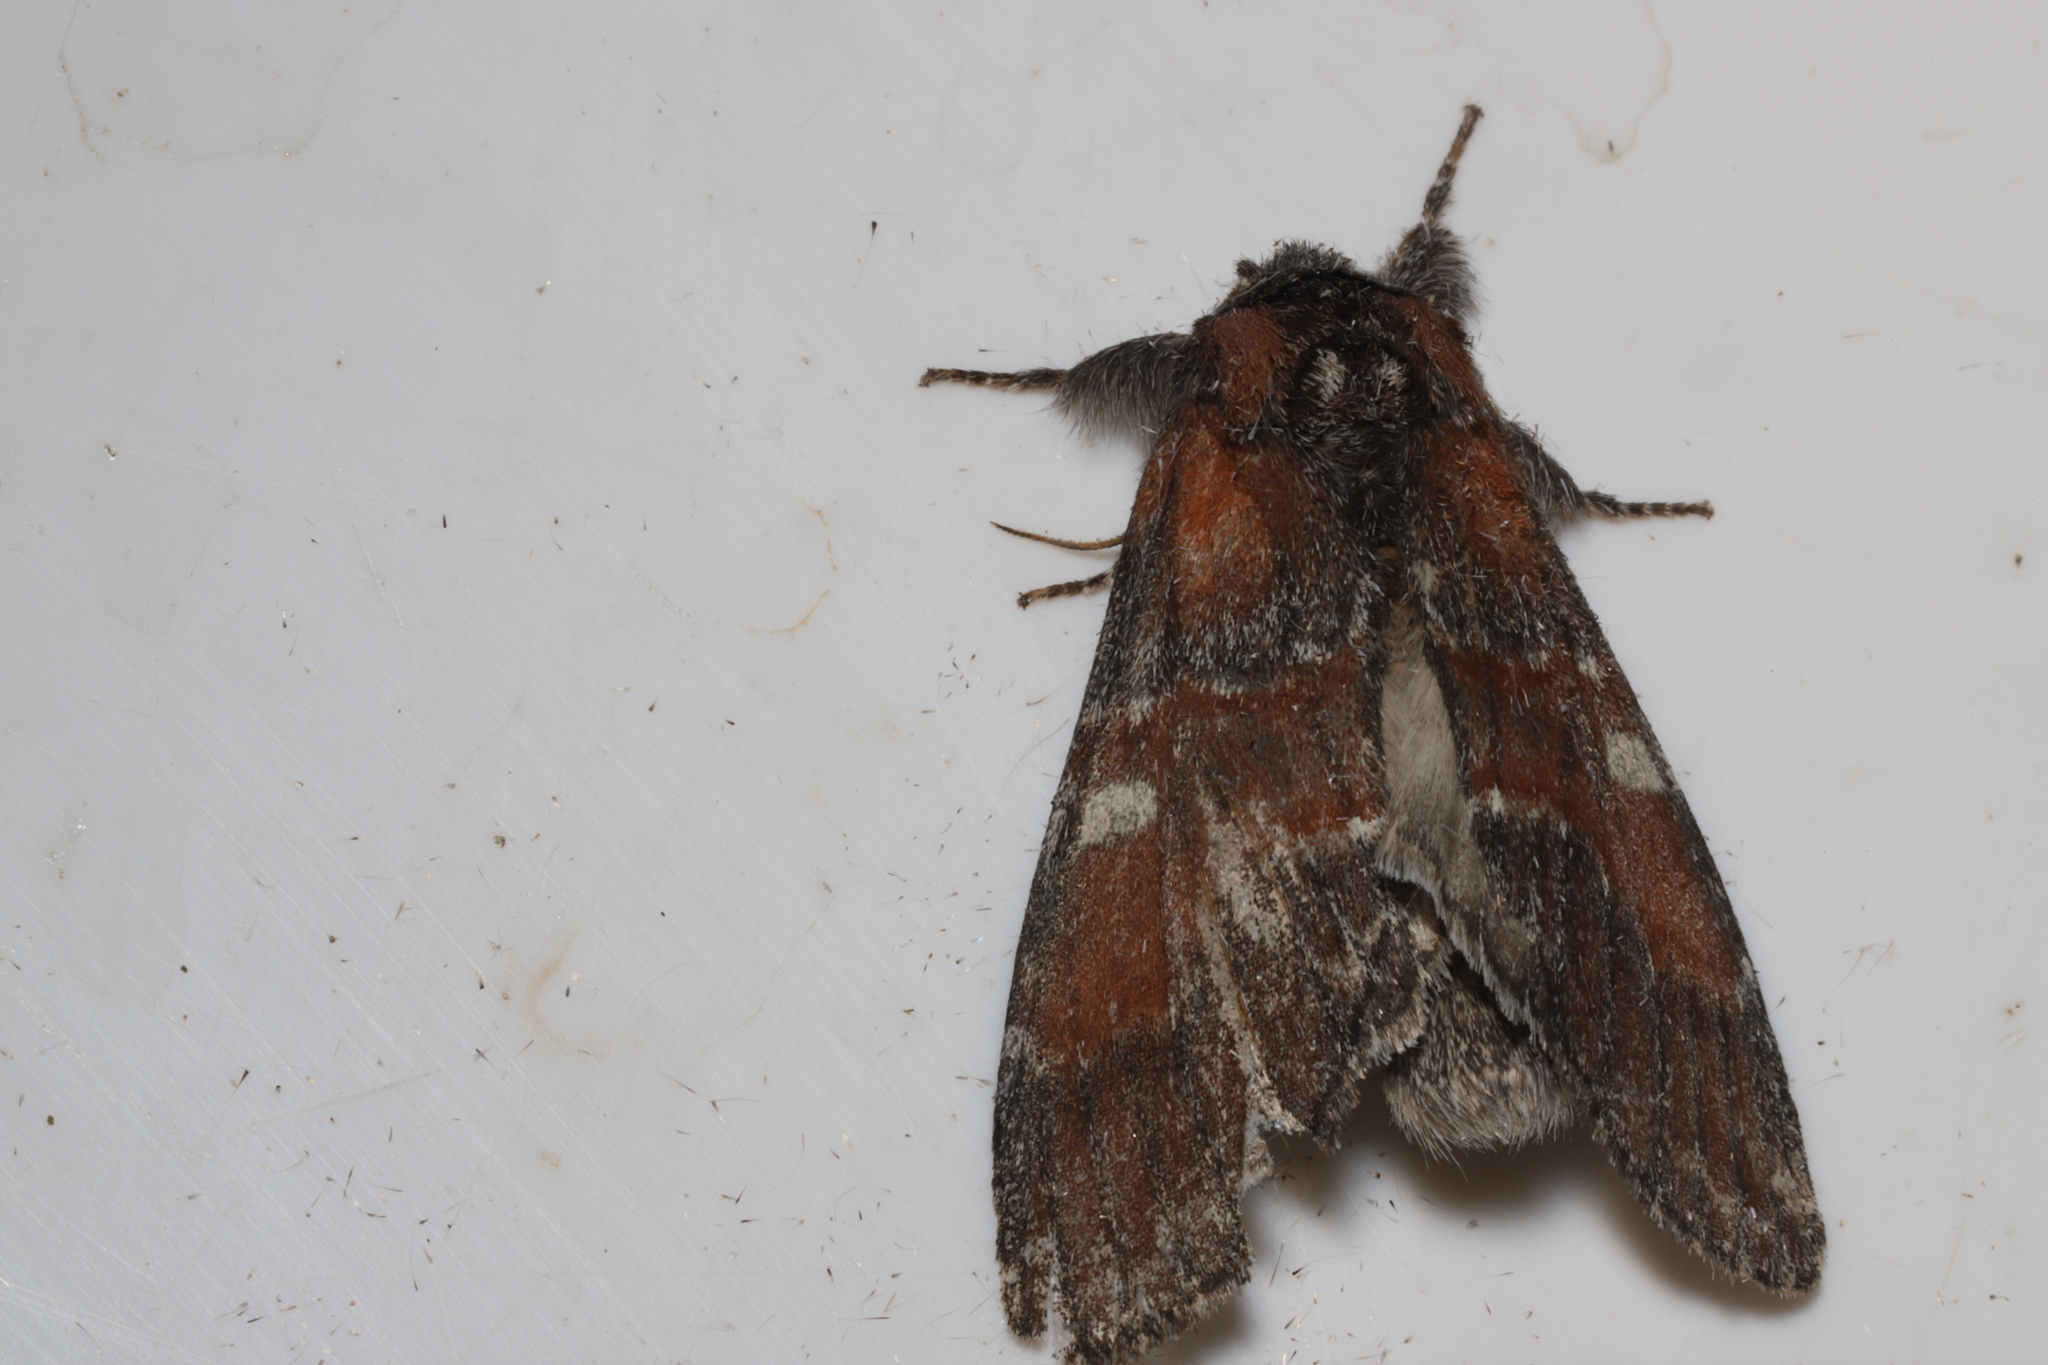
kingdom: Animalia
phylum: Arthropoda
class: Insecta
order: Lepidoptera
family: Notodontidae
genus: Peridea
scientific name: Peridea ferruginea
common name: Chocolate prominent
